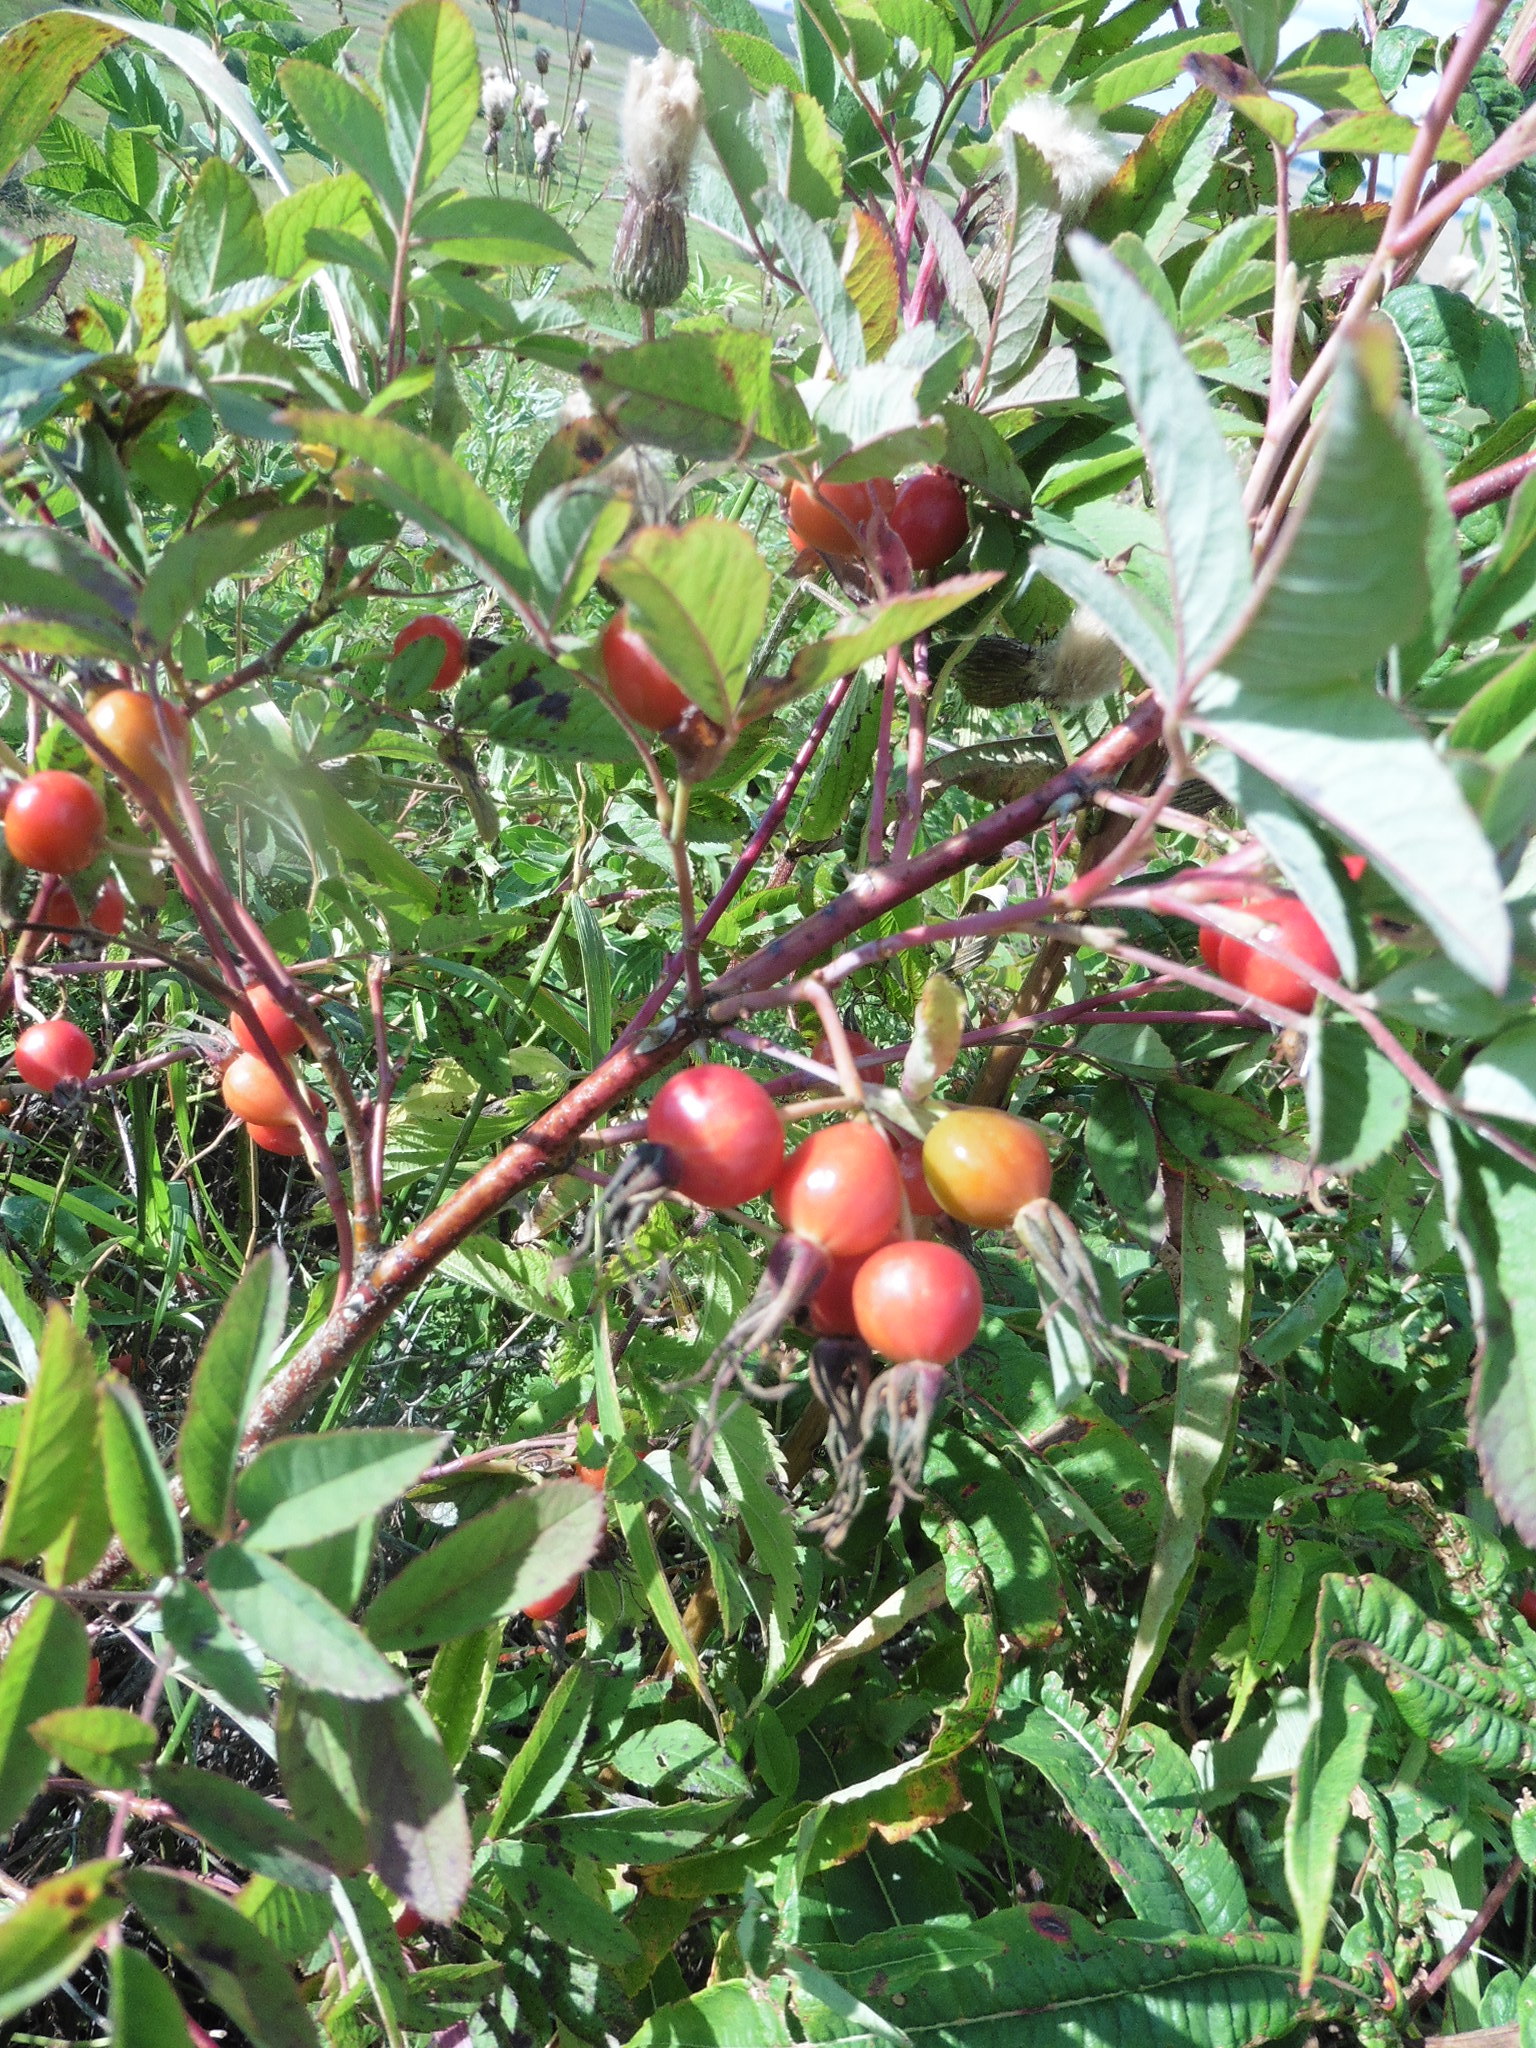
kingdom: Plantae
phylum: Tracheophyta
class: Magnoliopsida
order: Rosales
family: Rosaceae
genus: Rosa
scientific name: Rosa majalis
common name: Cinnamon rose
